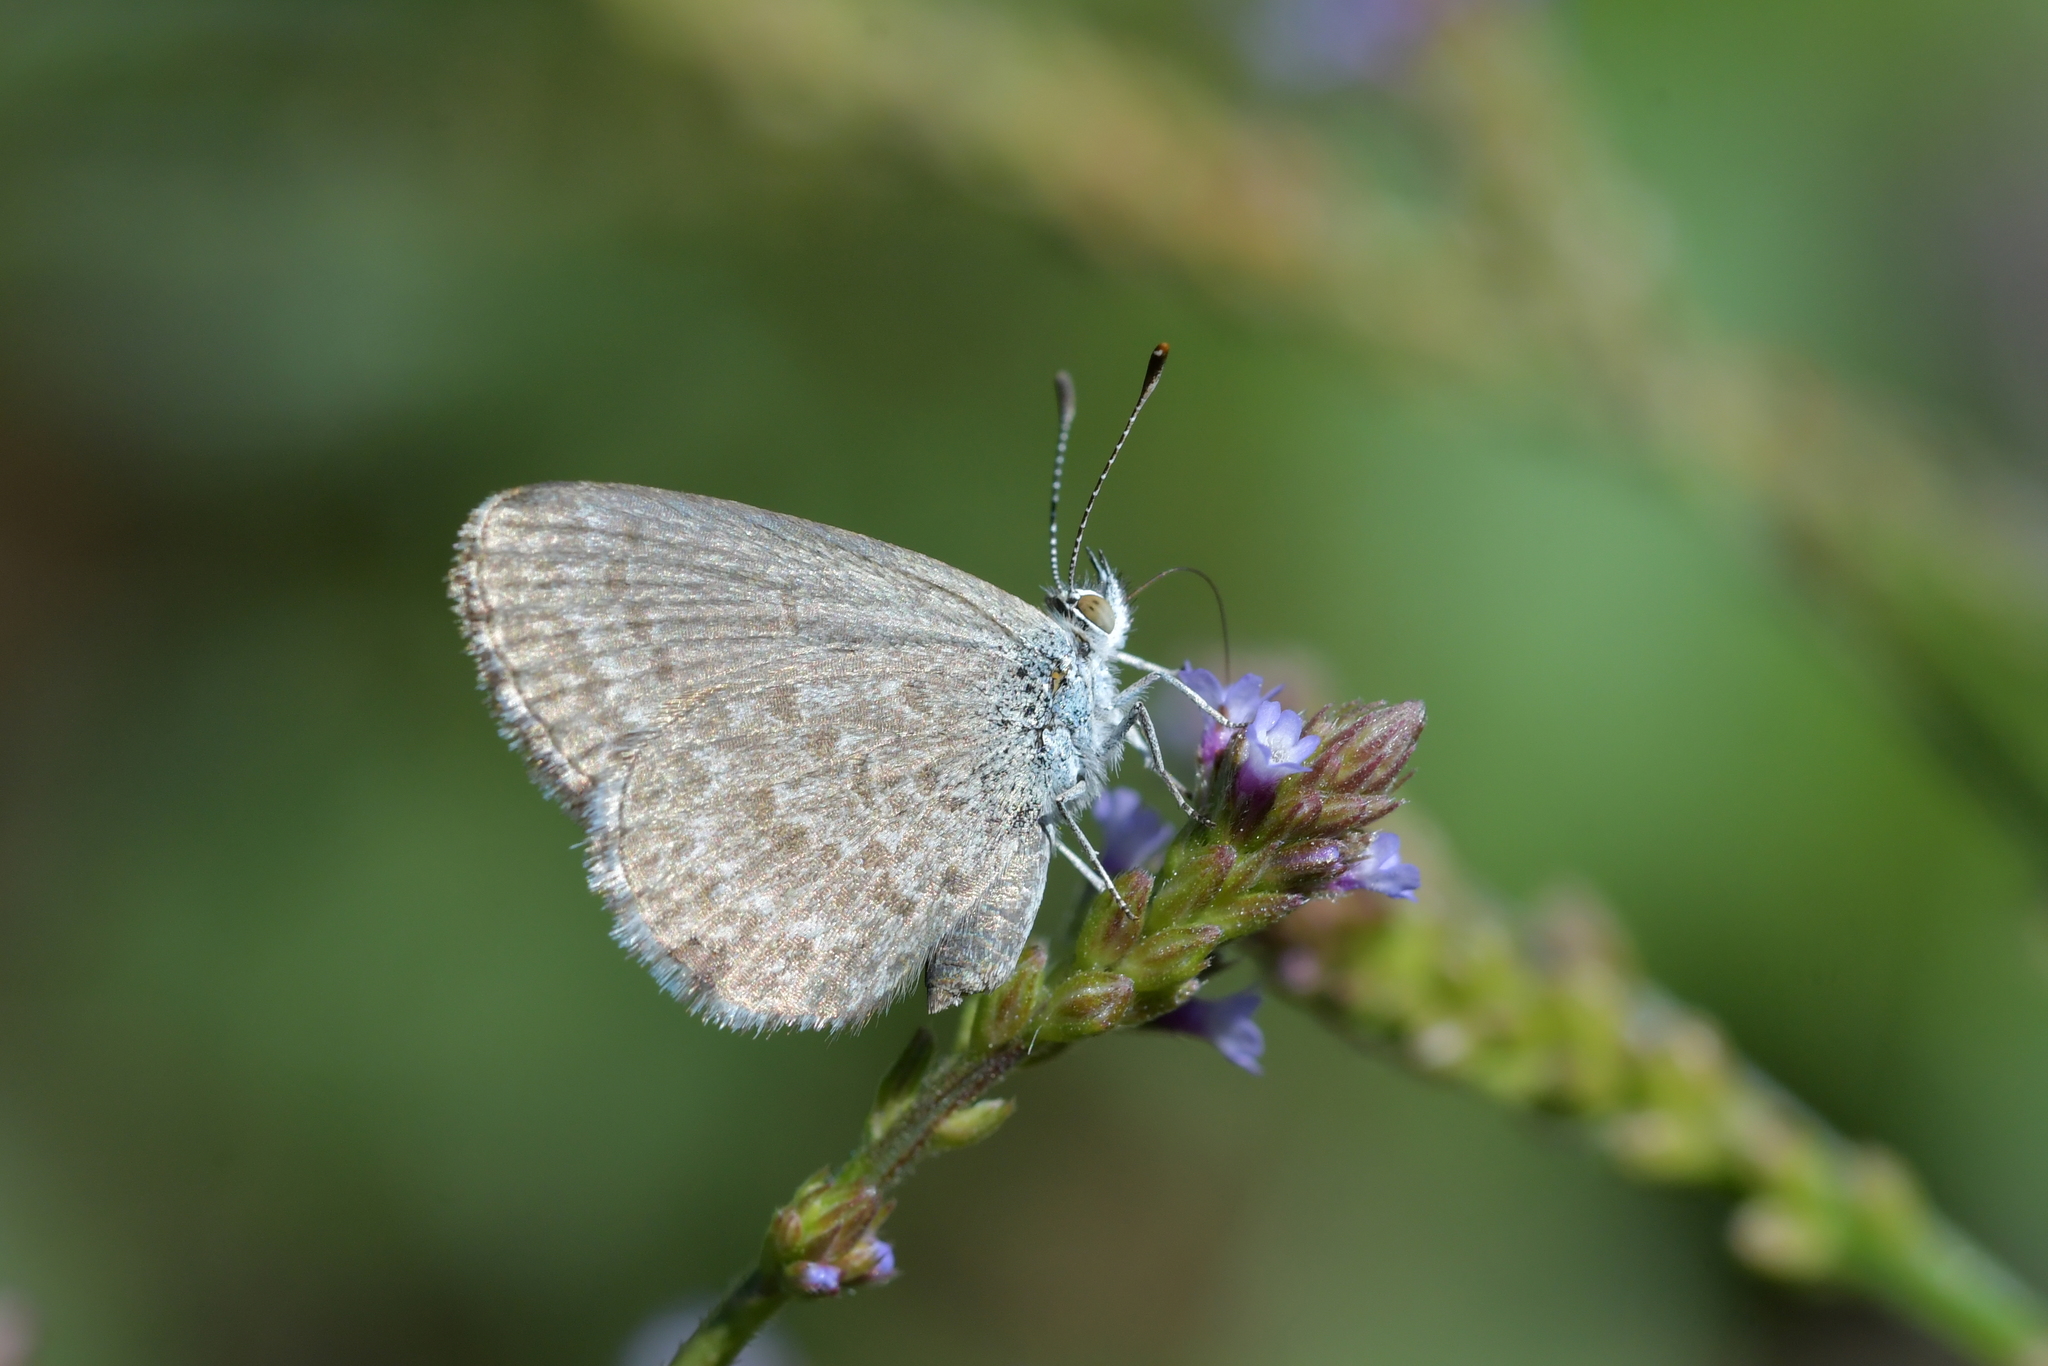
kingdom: Animalia
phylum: Arthropoda
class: Insecta
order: Lepidoptera
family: Lycaenidae
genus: Zizina
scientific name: Zizina labradus
